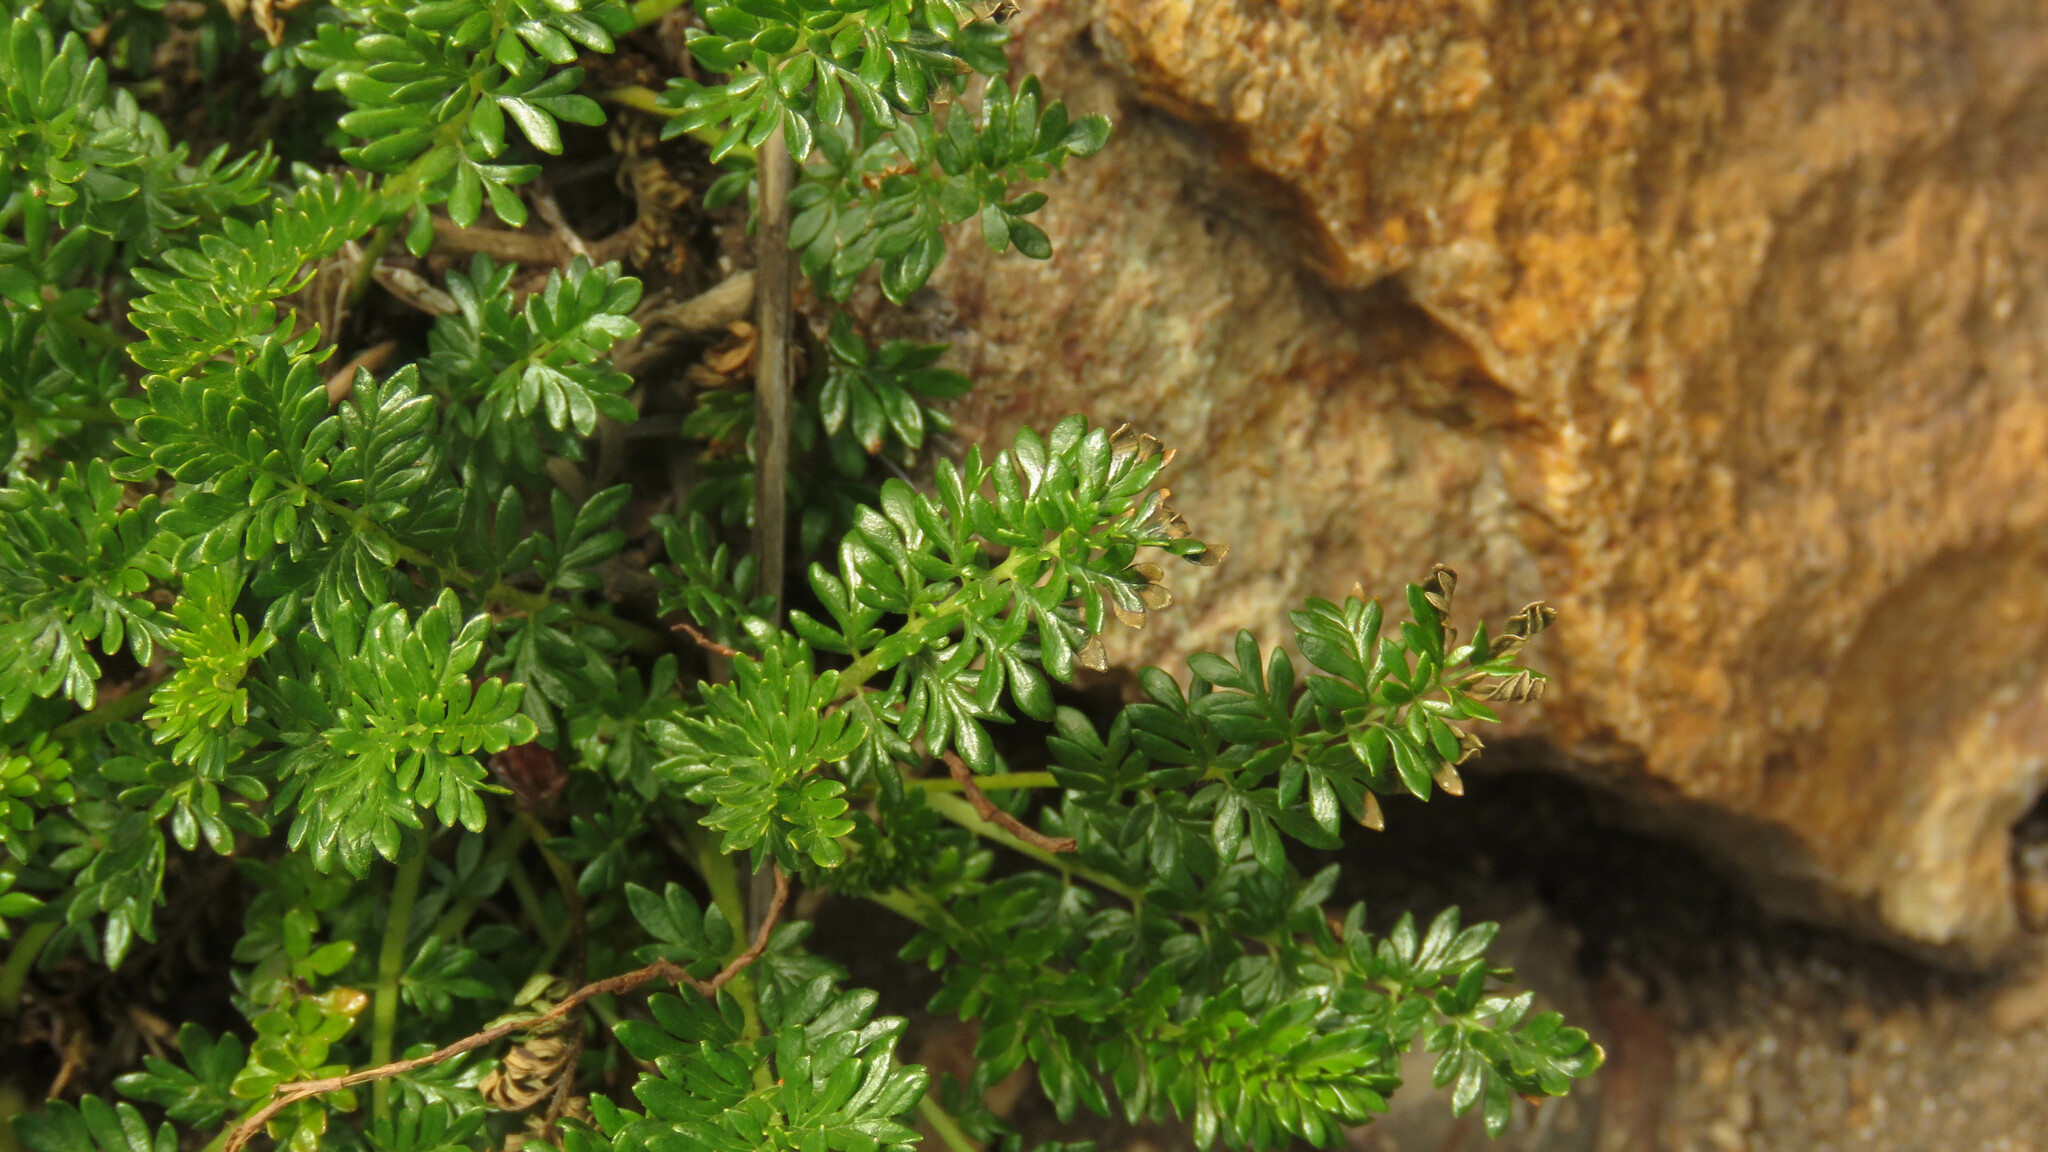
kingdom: Plantae
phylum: Tracheophyta
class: Magnoliopsida
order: Rosales
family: Rosaceae
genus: Acaena
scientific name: Acaena pinnatifida
